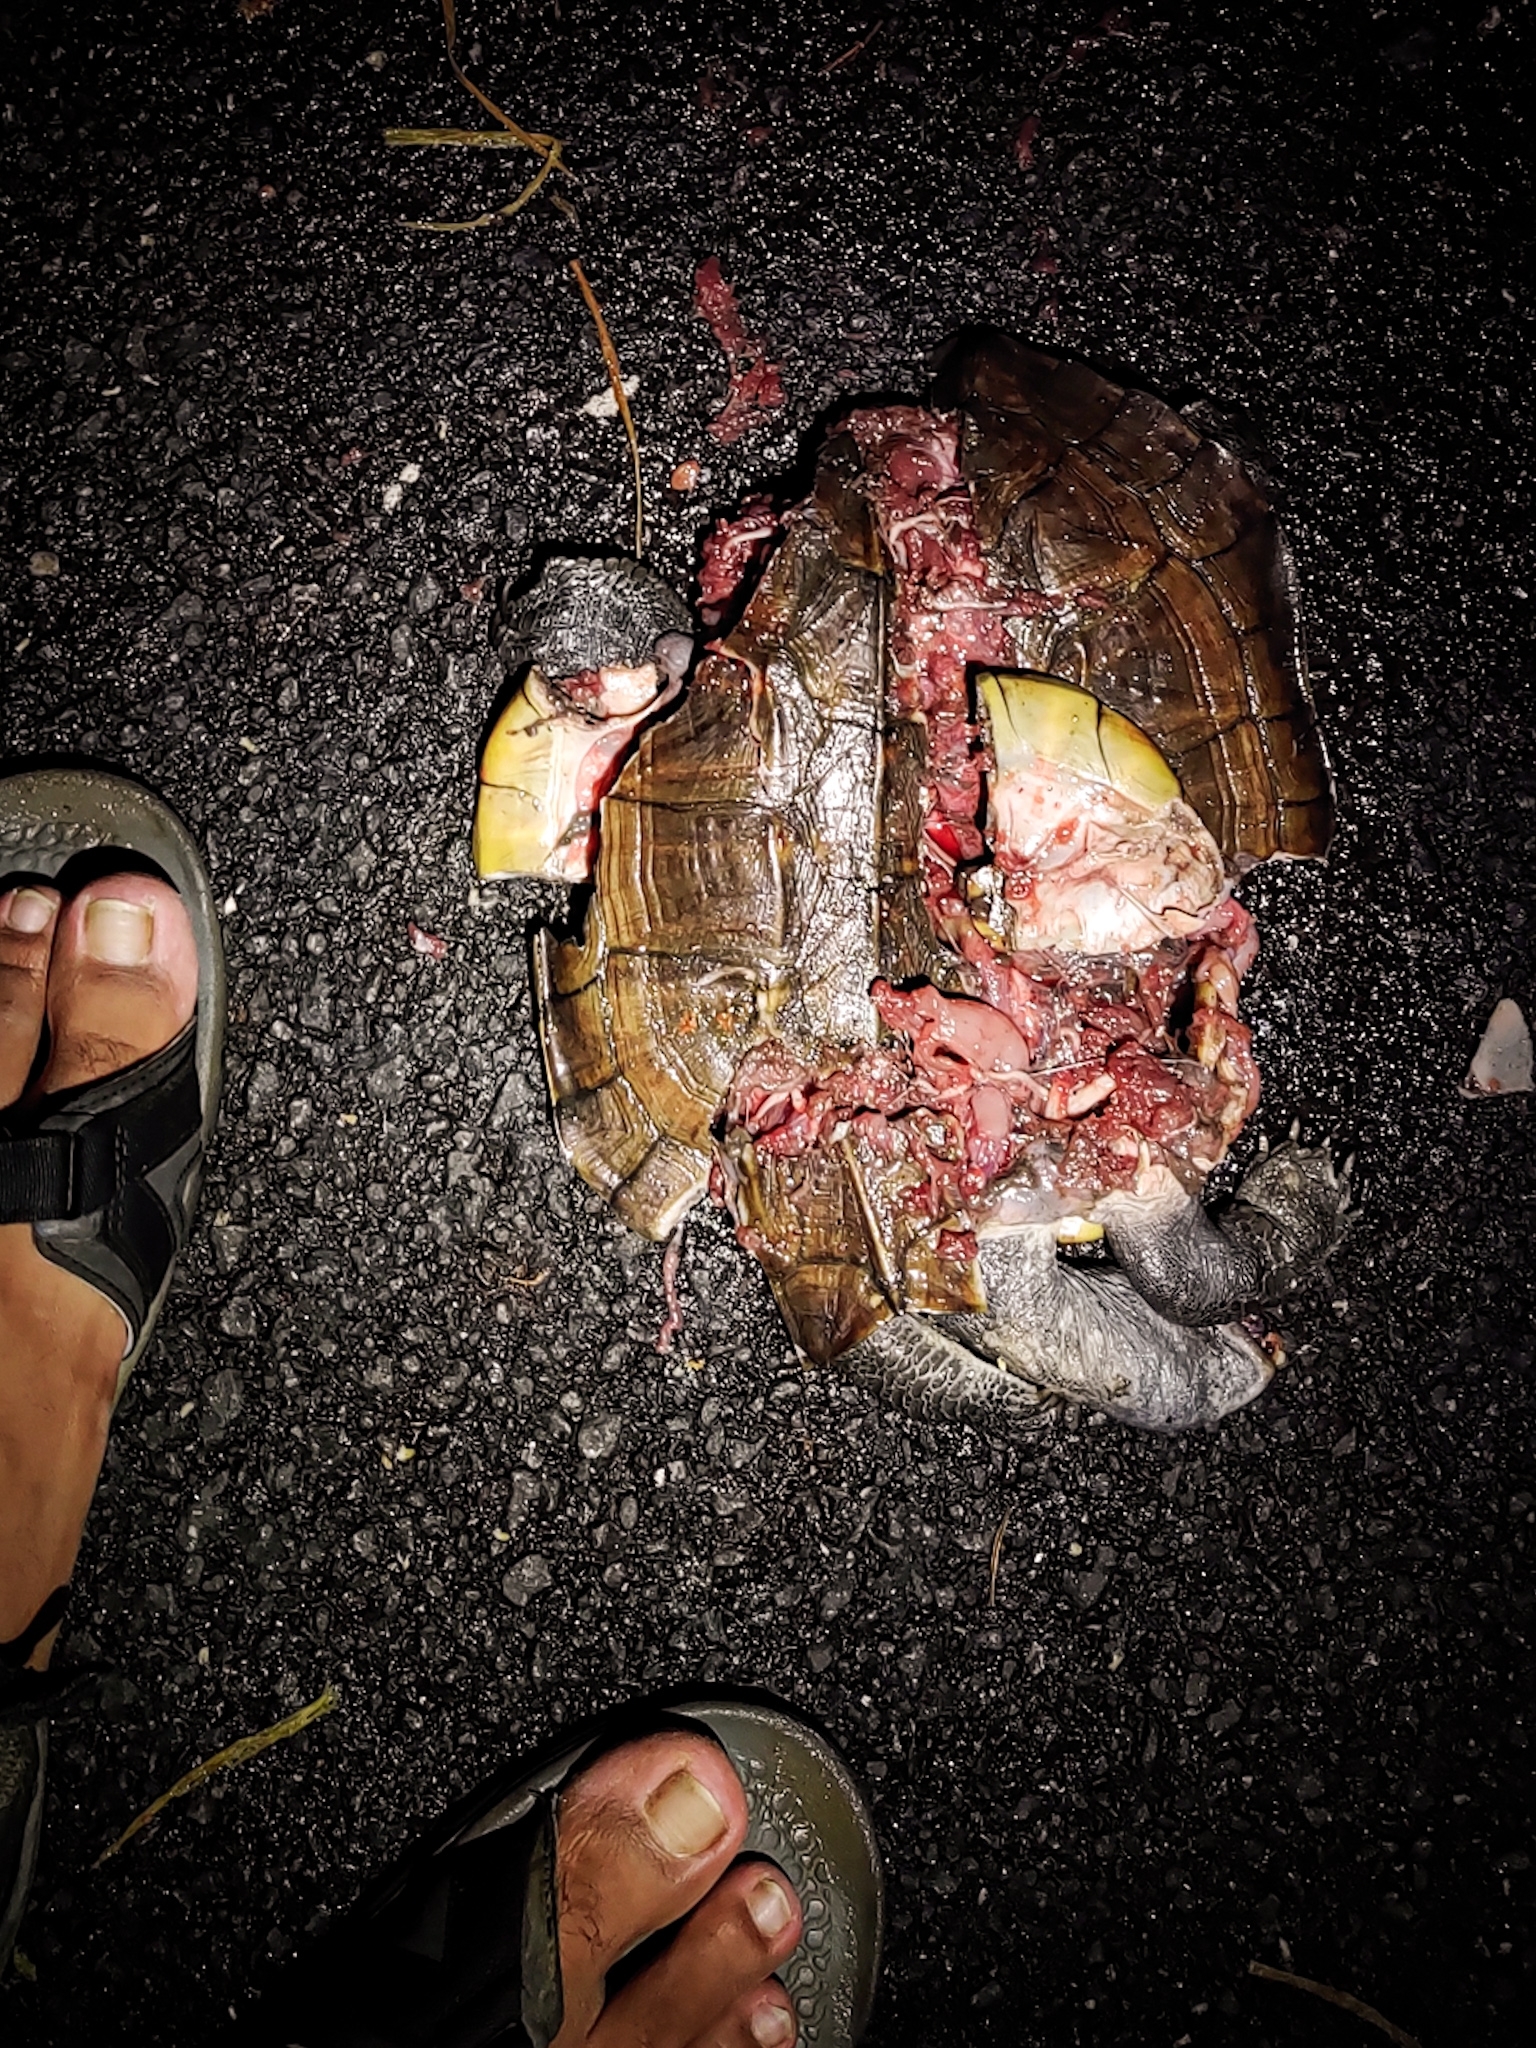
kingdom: Animalia
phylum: Chordata
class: Testudines
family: Geoemydidae
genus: Melanochelys
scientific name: Melanochelys trijuga
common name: Indian black turtle
